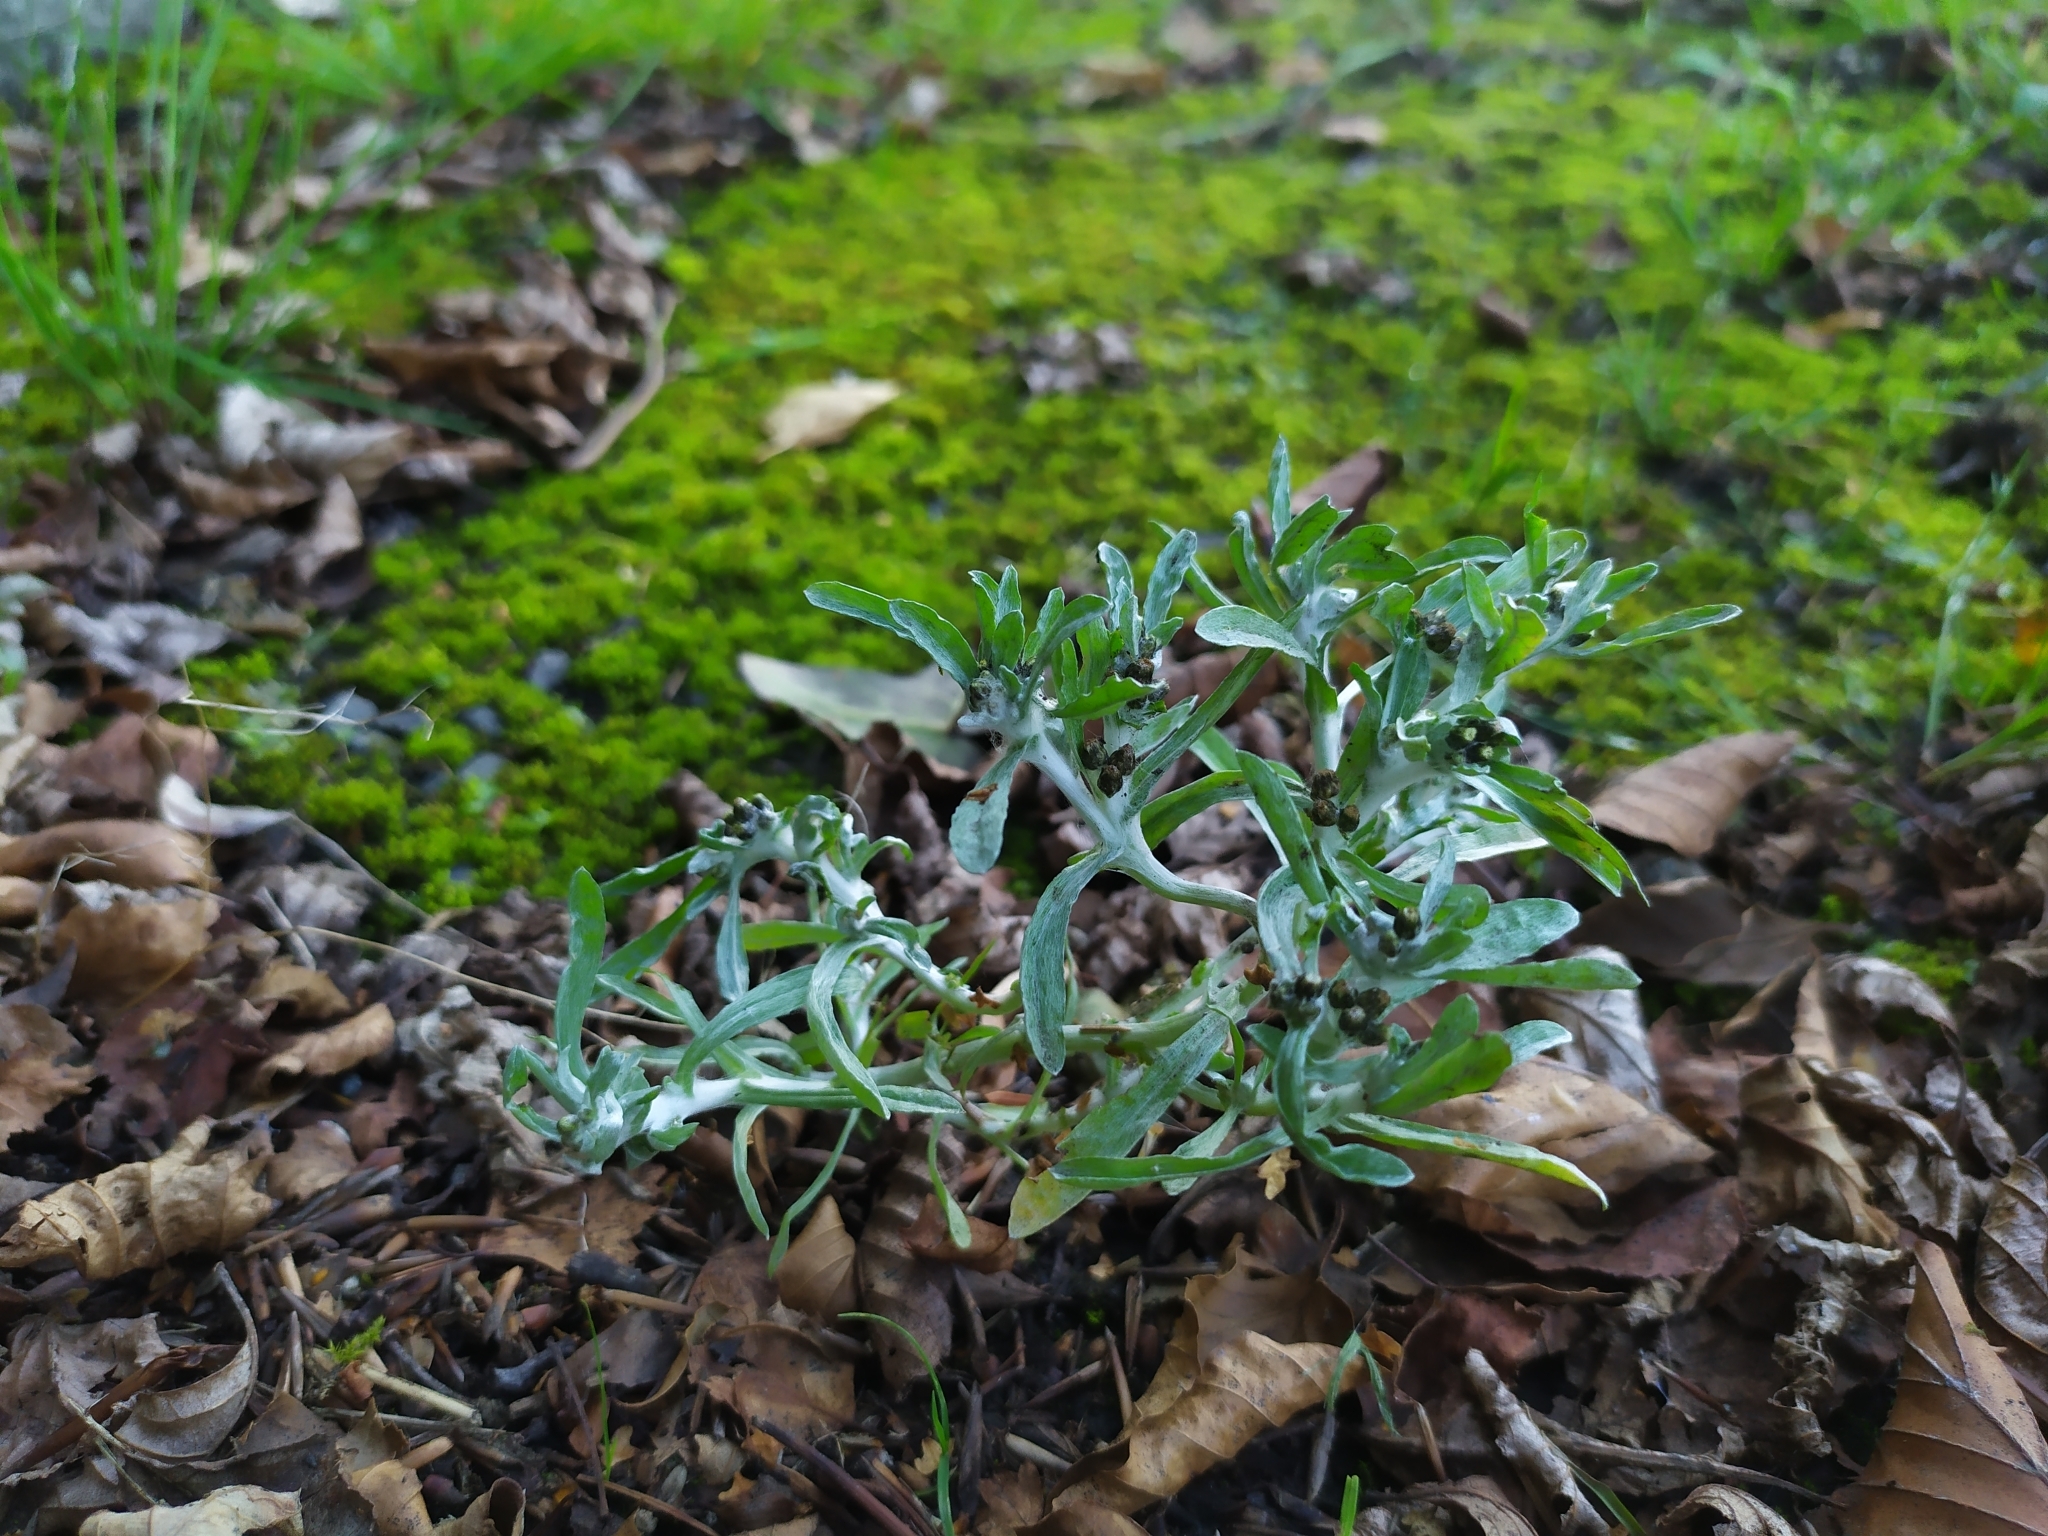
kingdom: Plantae
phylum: Tracheophyta
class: Magnoliopsida
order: Asterales
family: Asteraceae
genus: Gnaphalium
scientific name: Gnaphalium uliginosum
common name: Marsh cudweed
